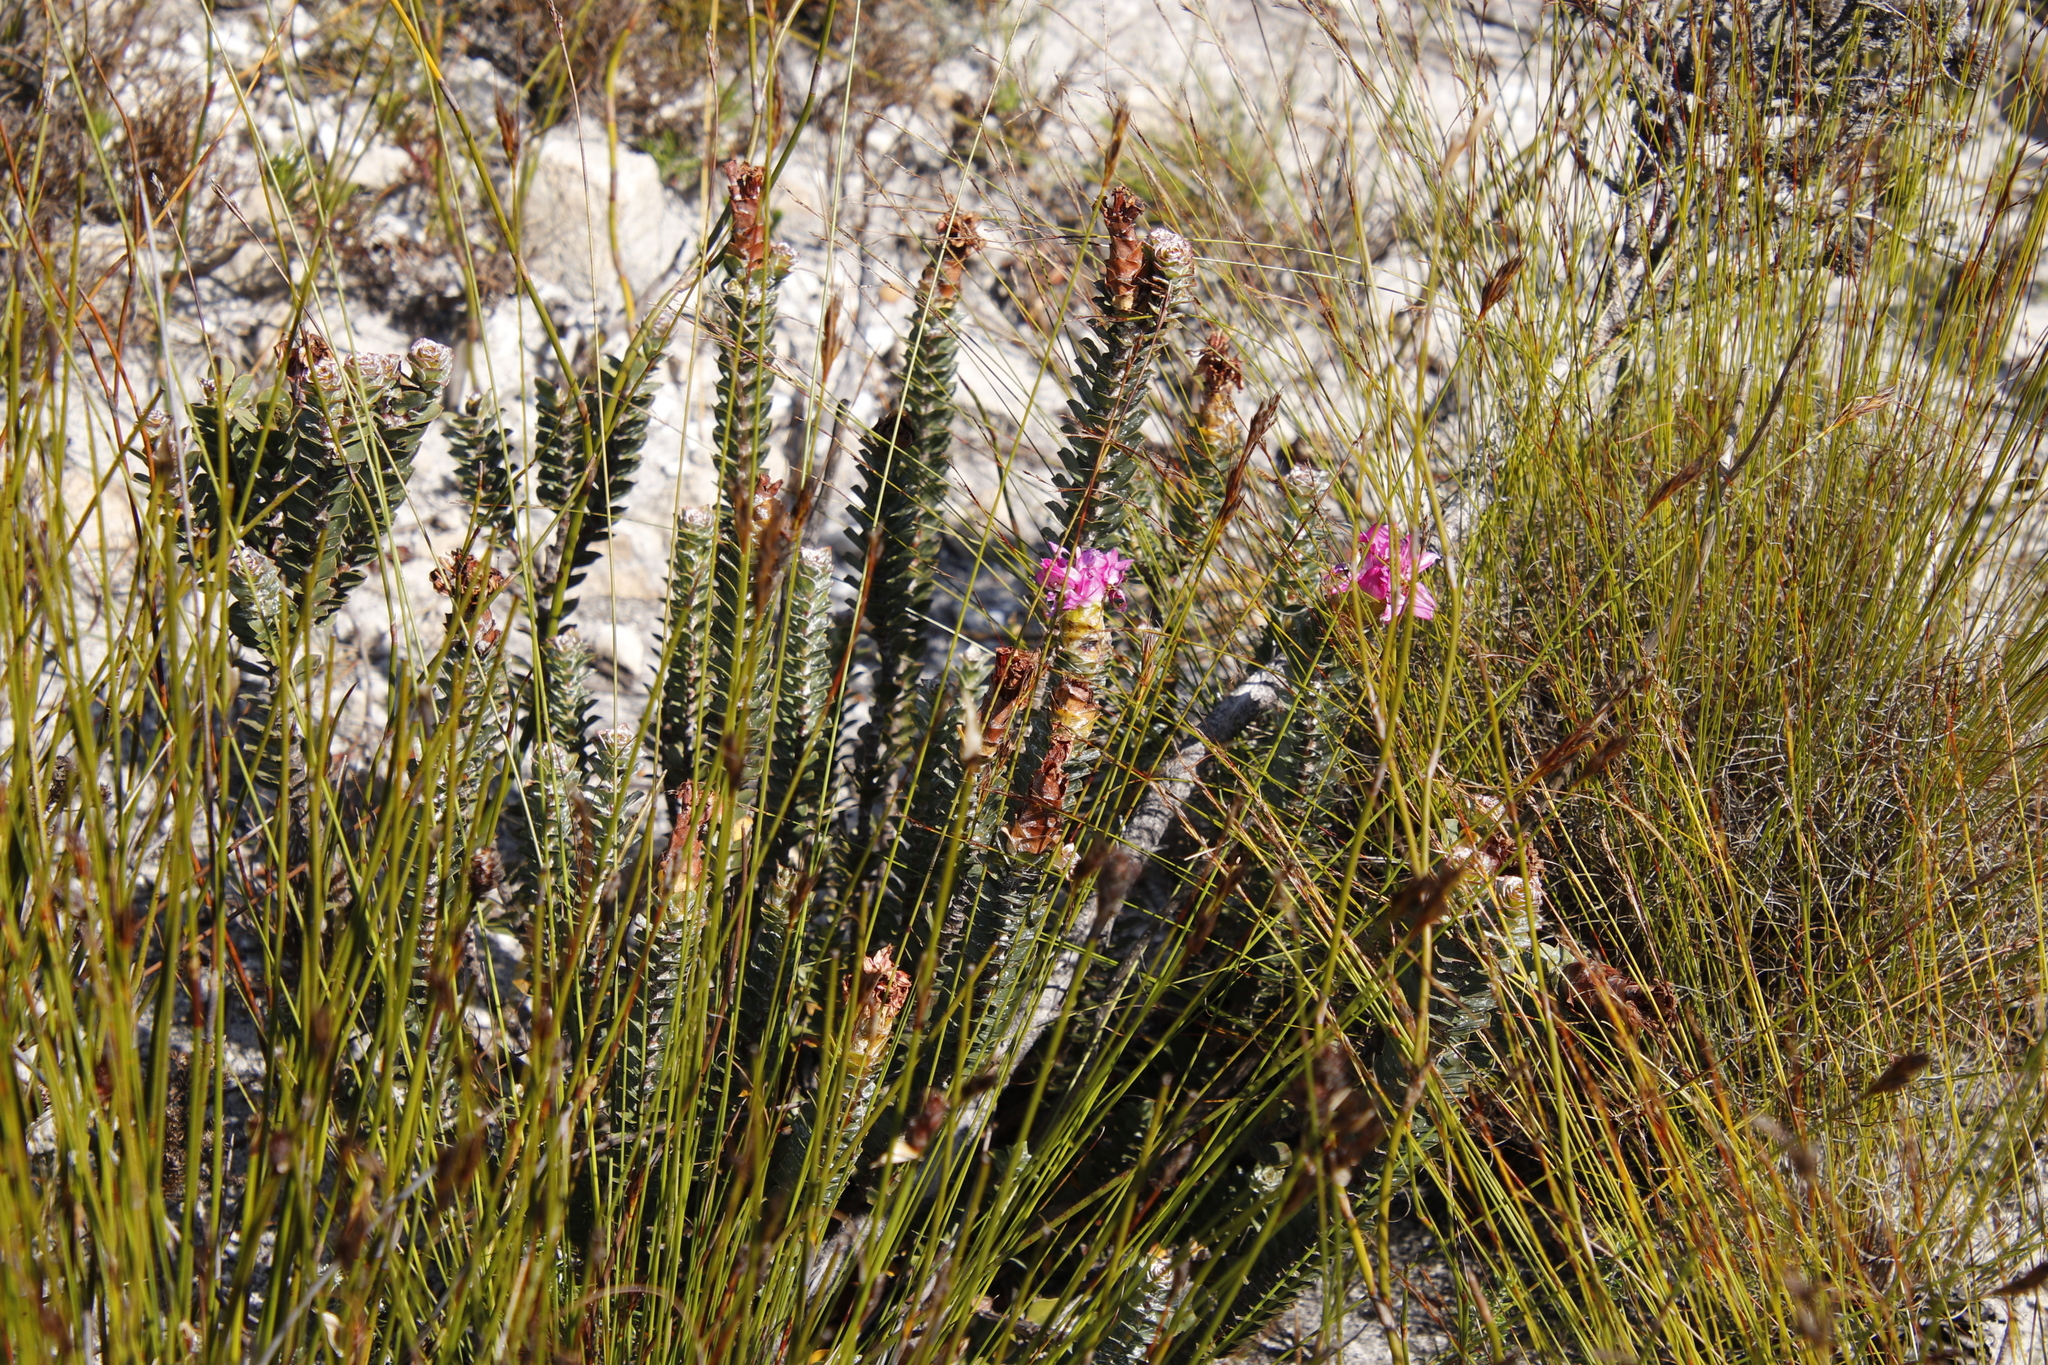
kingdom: Plantae
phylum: Tracheophyta
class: Magnoliopsida
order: Myrtales
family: Penaeaceae
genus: Saltera
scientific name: Saltera sarcocolla
